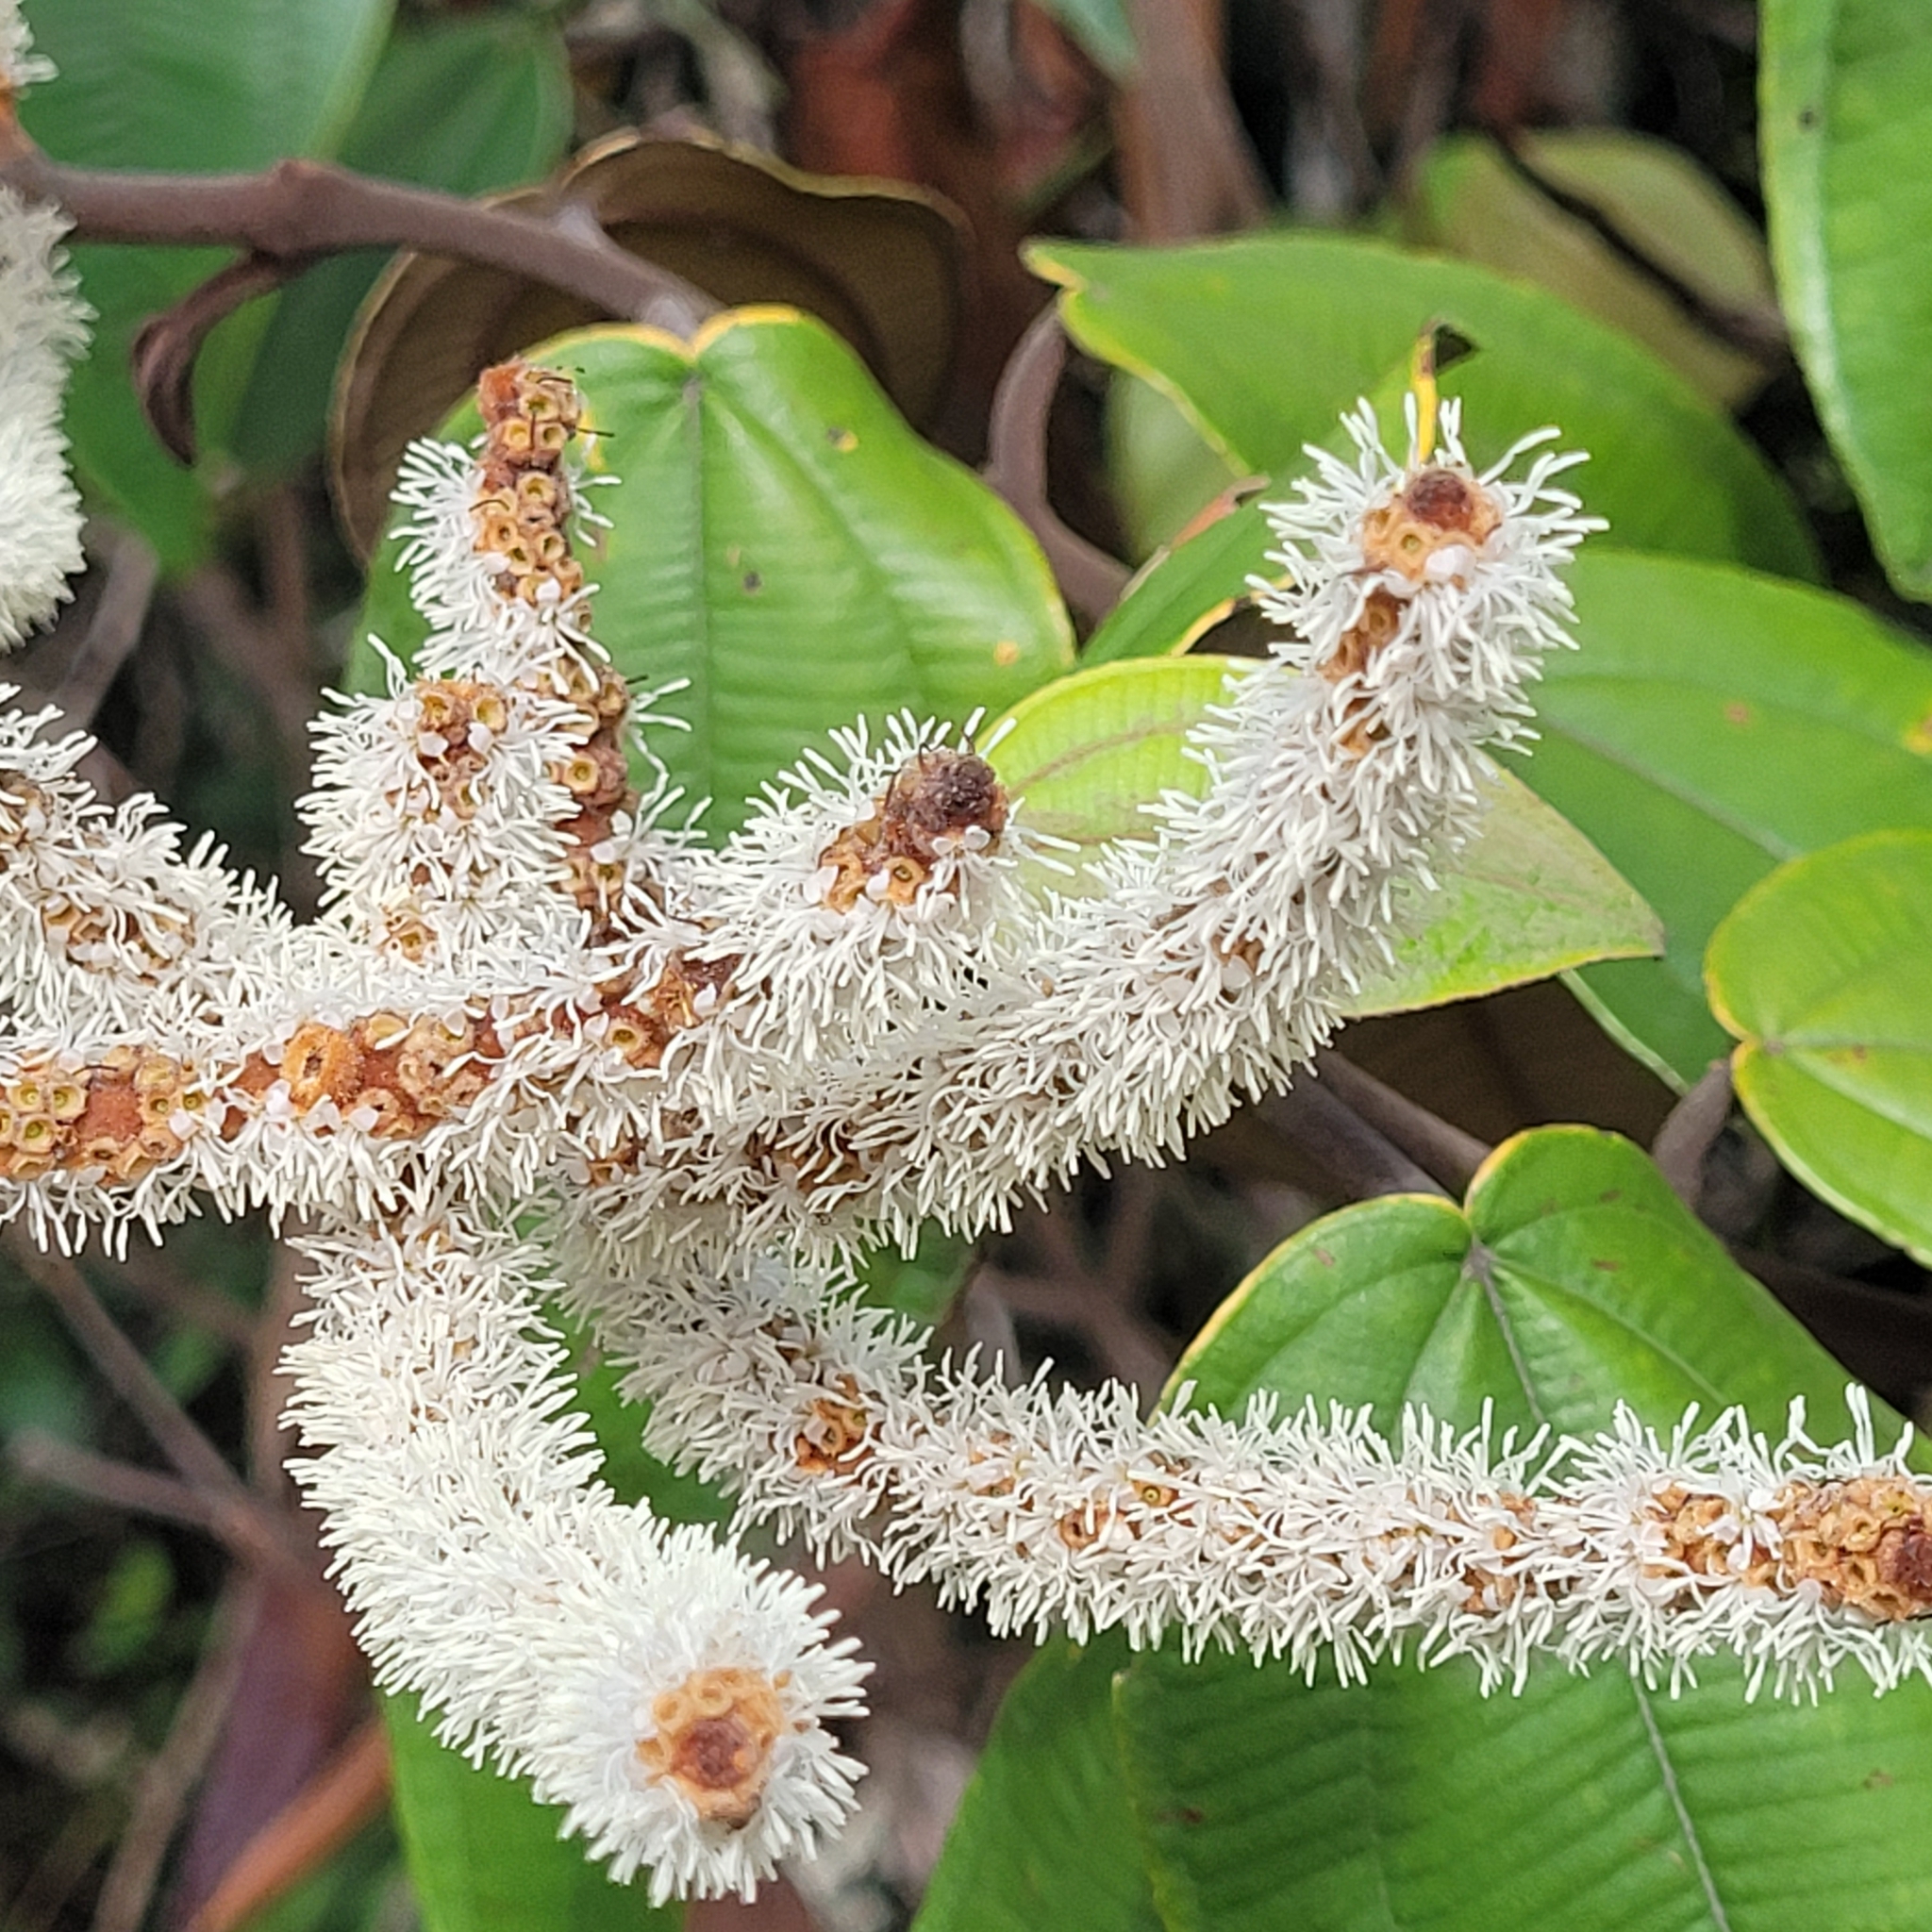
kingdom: Plantae
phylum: Tracheophyta
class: Magnoliopsida
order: Myrtales
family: Melastomataceae
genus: Miconia
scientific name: Miconia corallina
